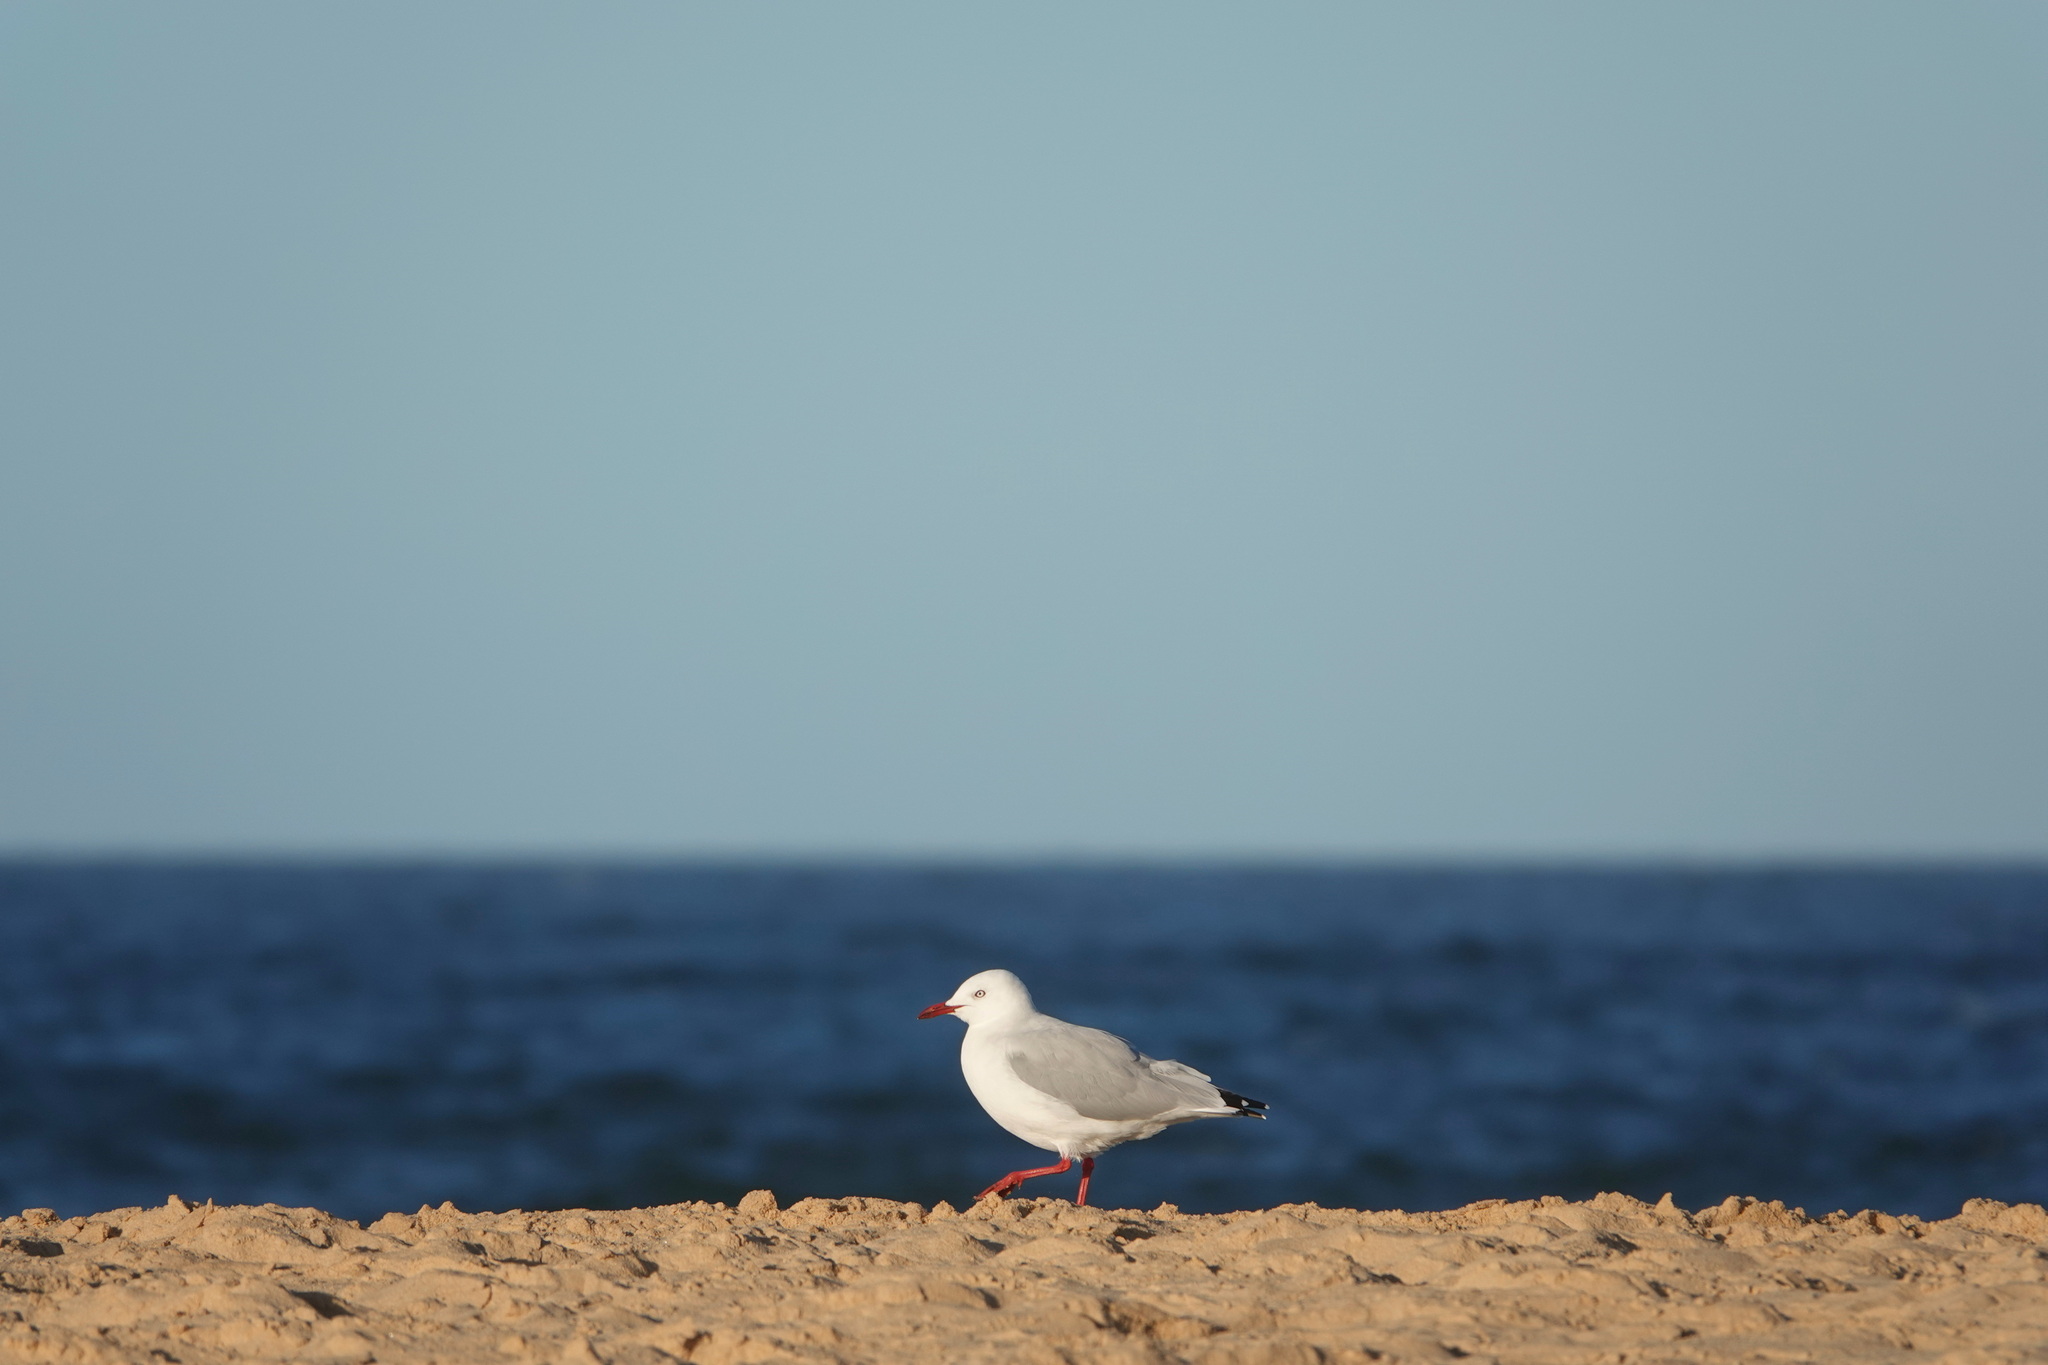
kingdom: Animalia
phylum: Chordata
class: Aves
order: Charadriiformes
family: Laridae
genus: Chroicocephalus
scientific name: Chroicocephalus novaehollandiae
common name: Silver gull
